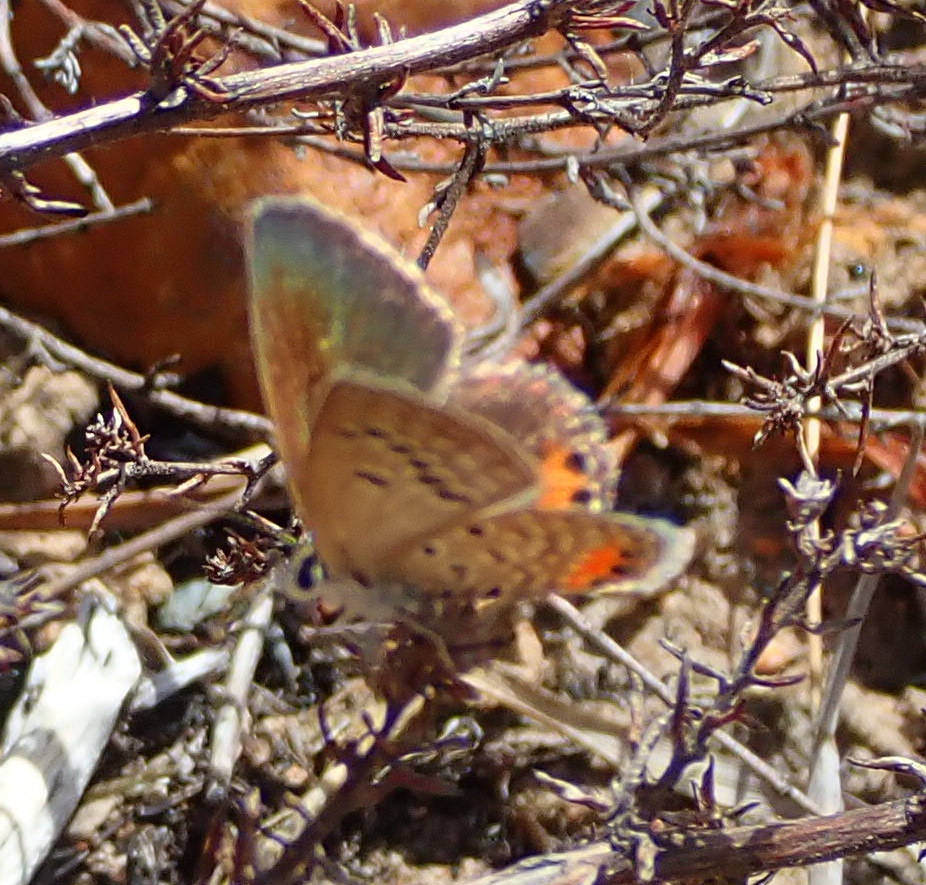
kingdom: Animalia
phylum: Arthropoda
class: Insecta
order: Lepidoptera
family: Lycaenidae
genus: Freyeria
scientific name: Freyeria trochylus
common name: Grass jewel
